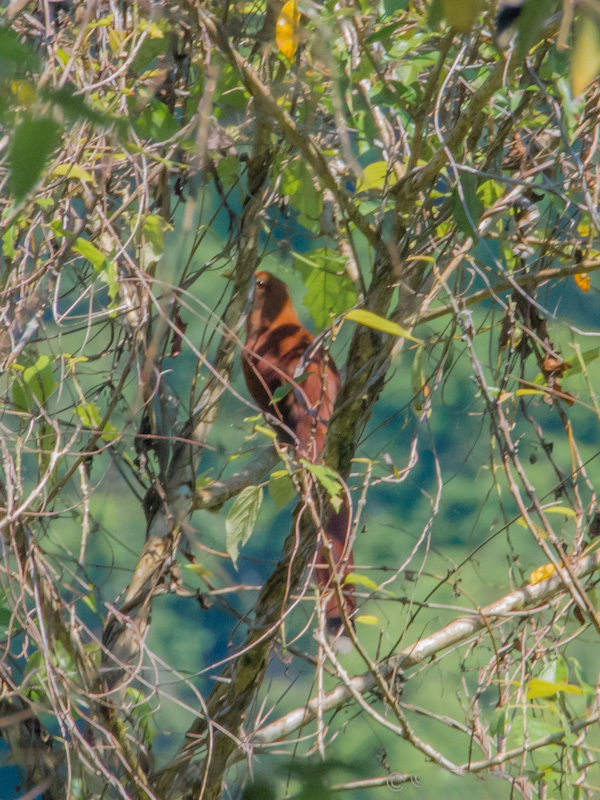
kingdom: Animalia
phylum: Chordata
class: Aves
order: Cuculiformes
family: Cuculidae
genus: Piaya
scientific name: Piaya cayana
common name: Squirrel cuckoo
